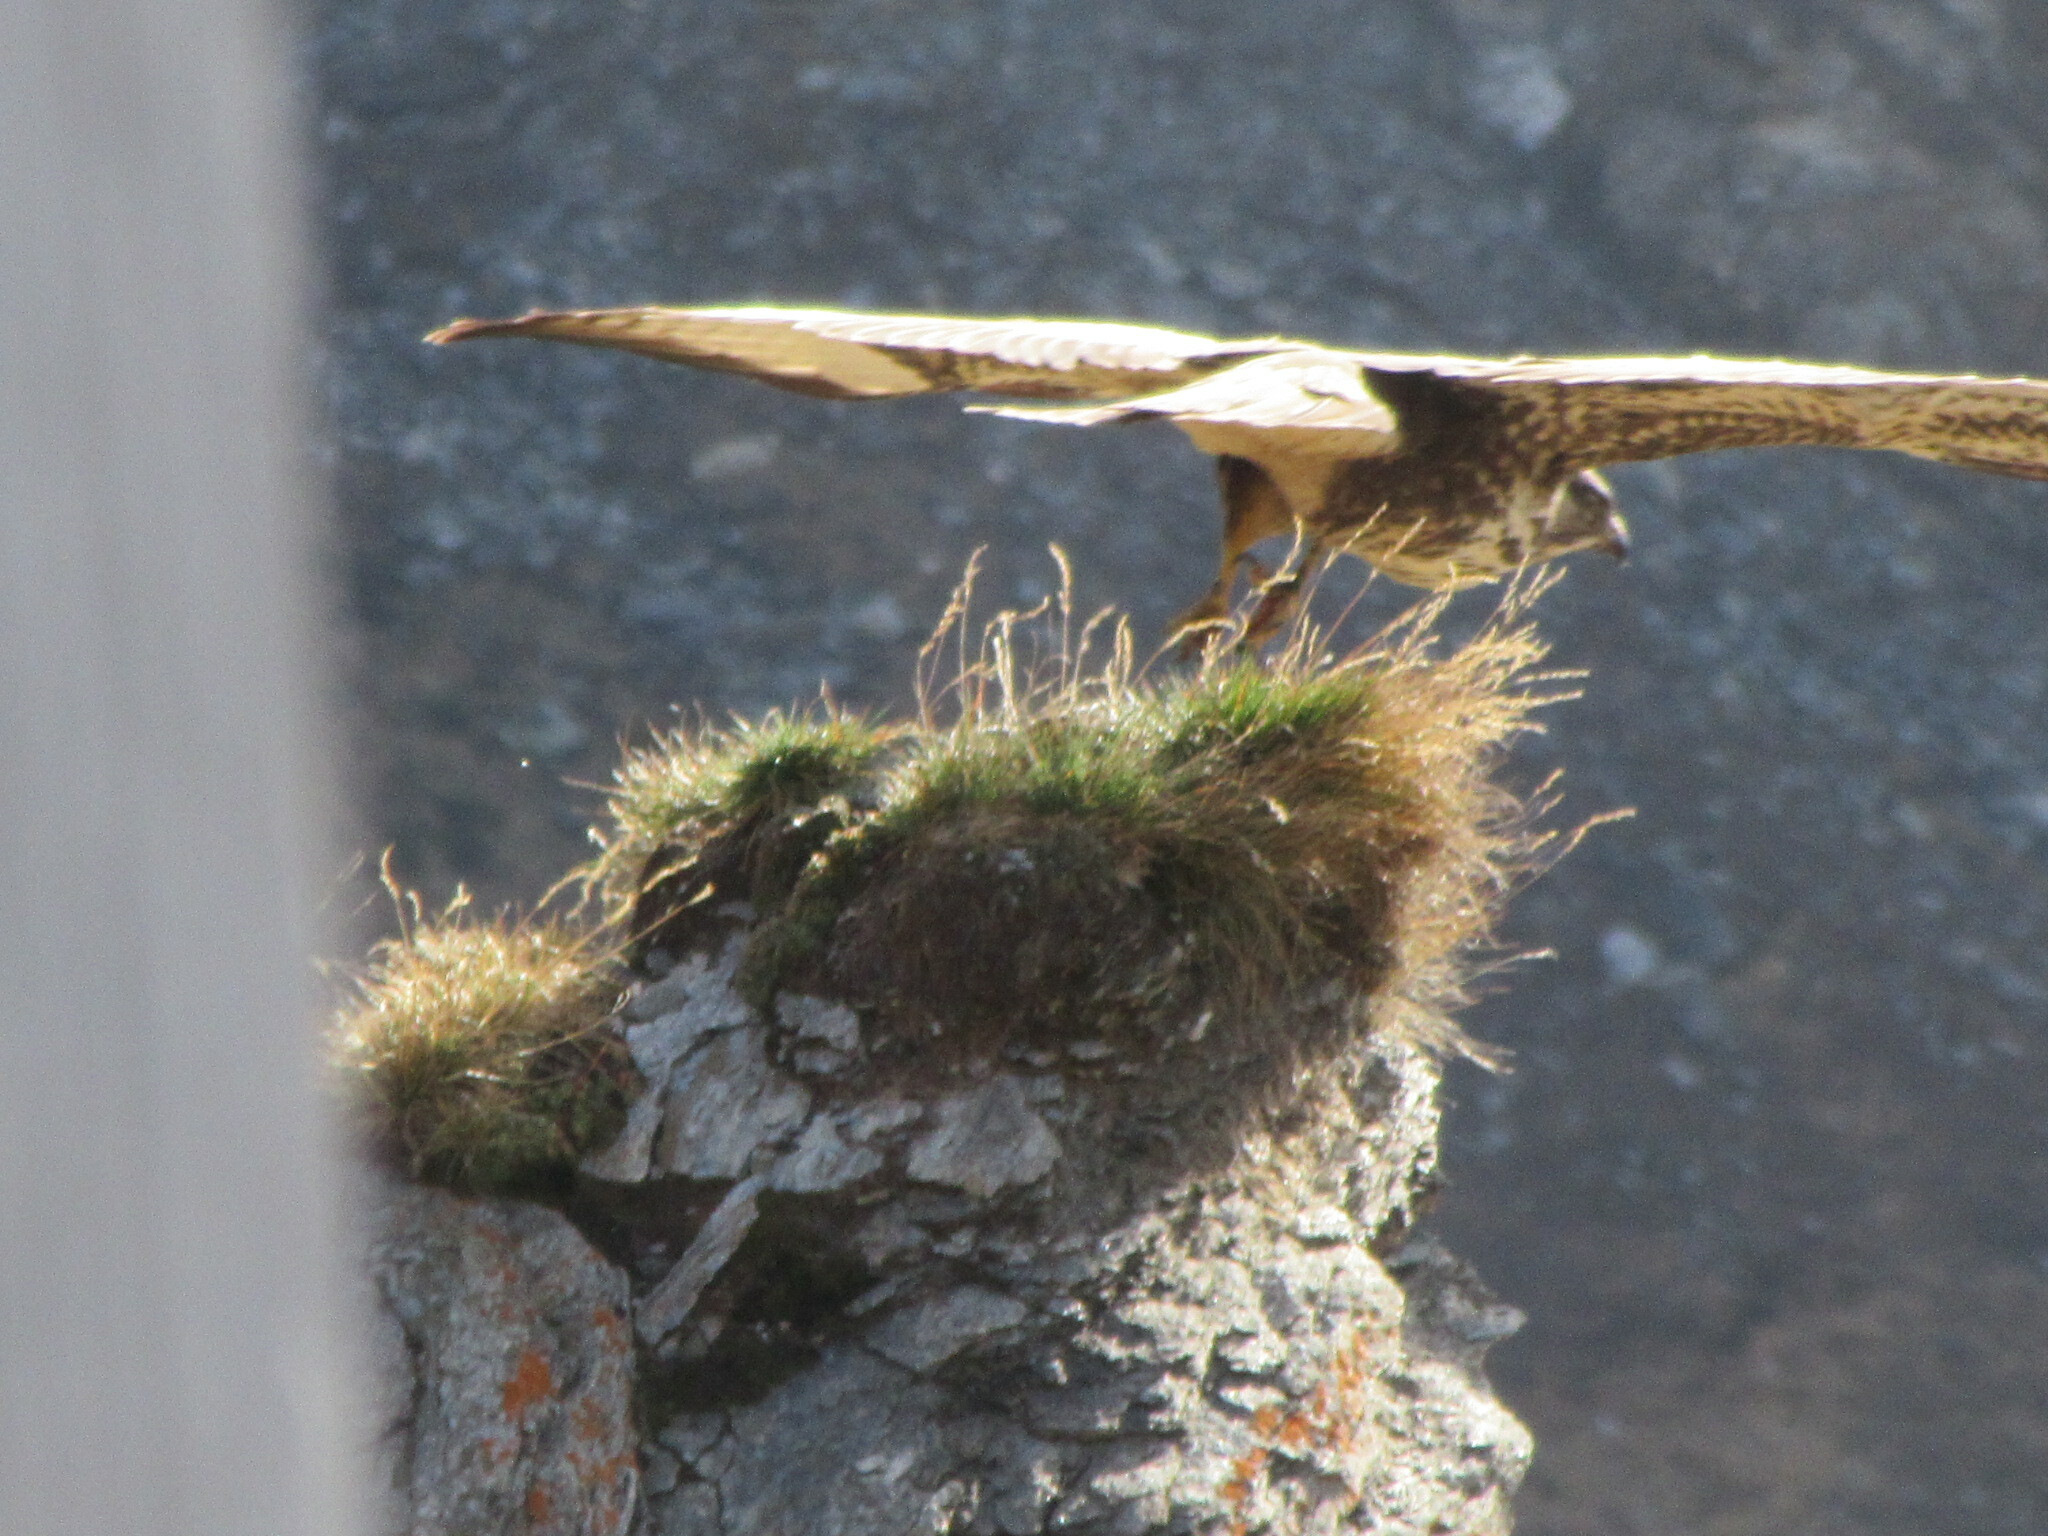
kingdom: Animalia
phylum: Chordata
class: Aves
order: Accipitriformes
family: Accipitridae
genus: Buteo
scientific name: Buteo buteo
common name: Common buzzard
